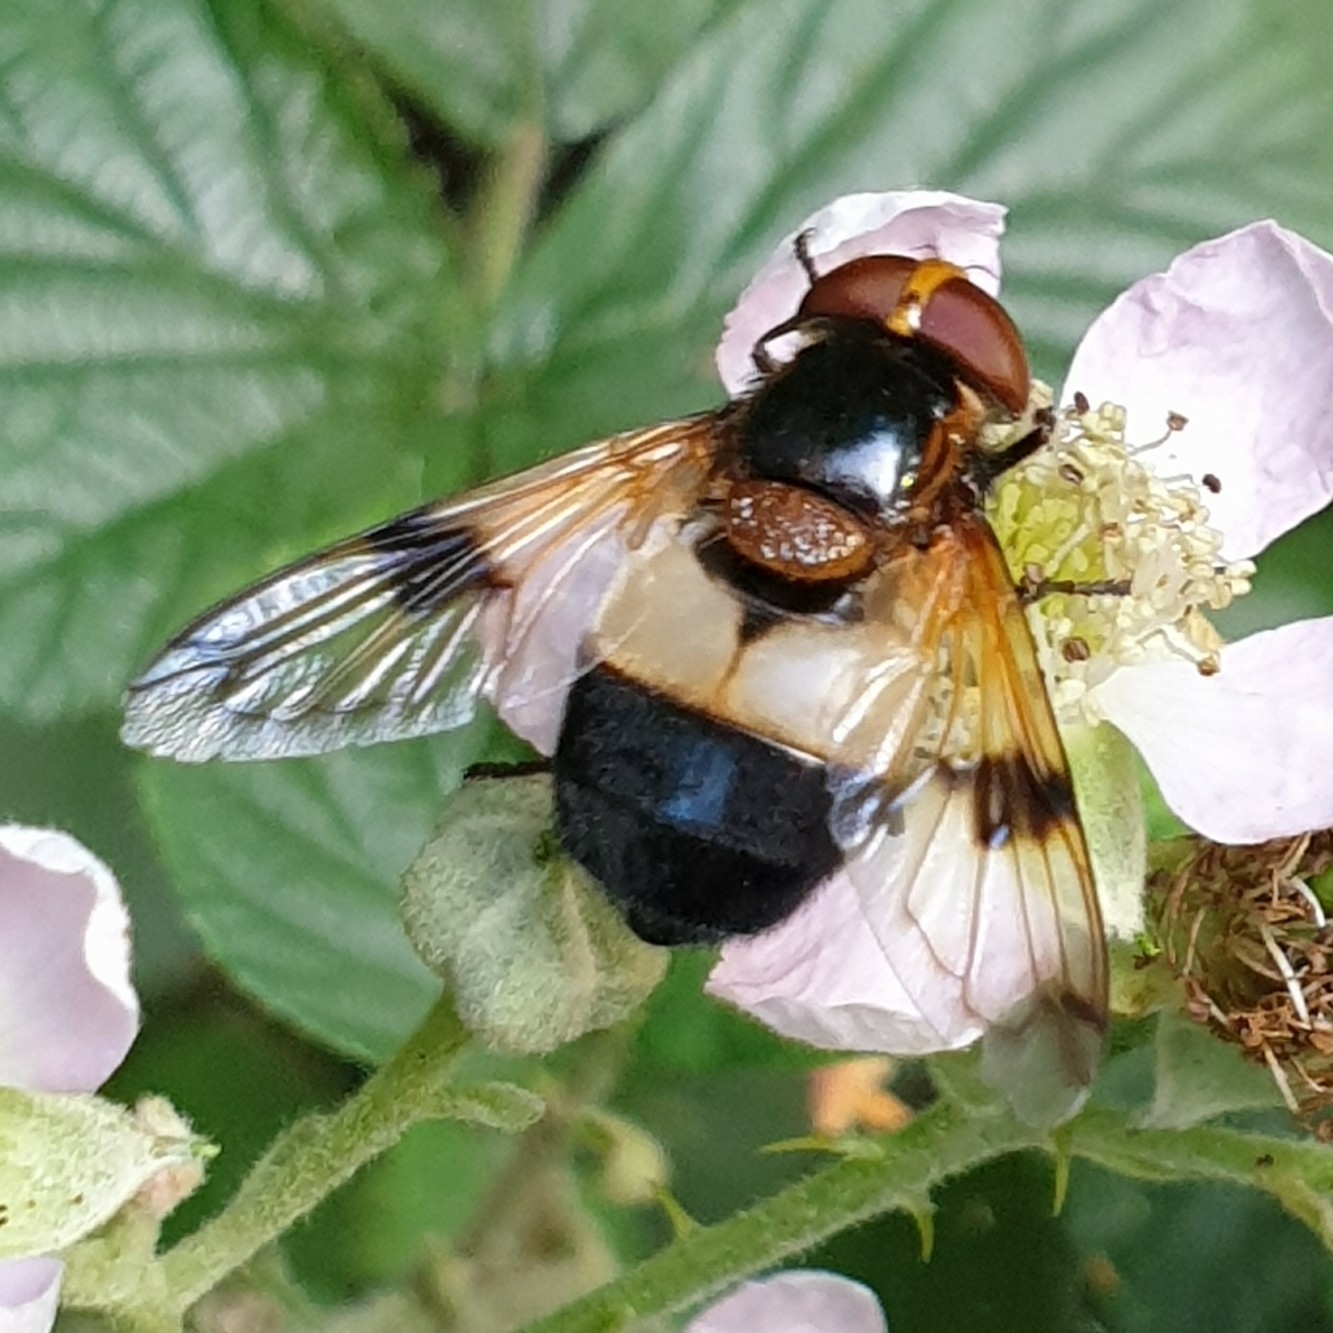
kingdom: Animalia
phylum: Arthropoda
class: Insecta
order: Diptera
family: Syrphidae
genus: Volucella
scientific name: Volucella pellucens
